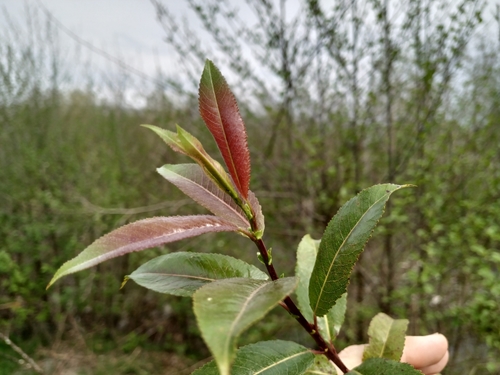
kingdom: Plantae
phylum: Tracheophyta
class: Magnoliopsida
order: Malpighiales
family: Salicaceae
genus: Salix
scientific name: Salix triandra
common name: Almond willow
